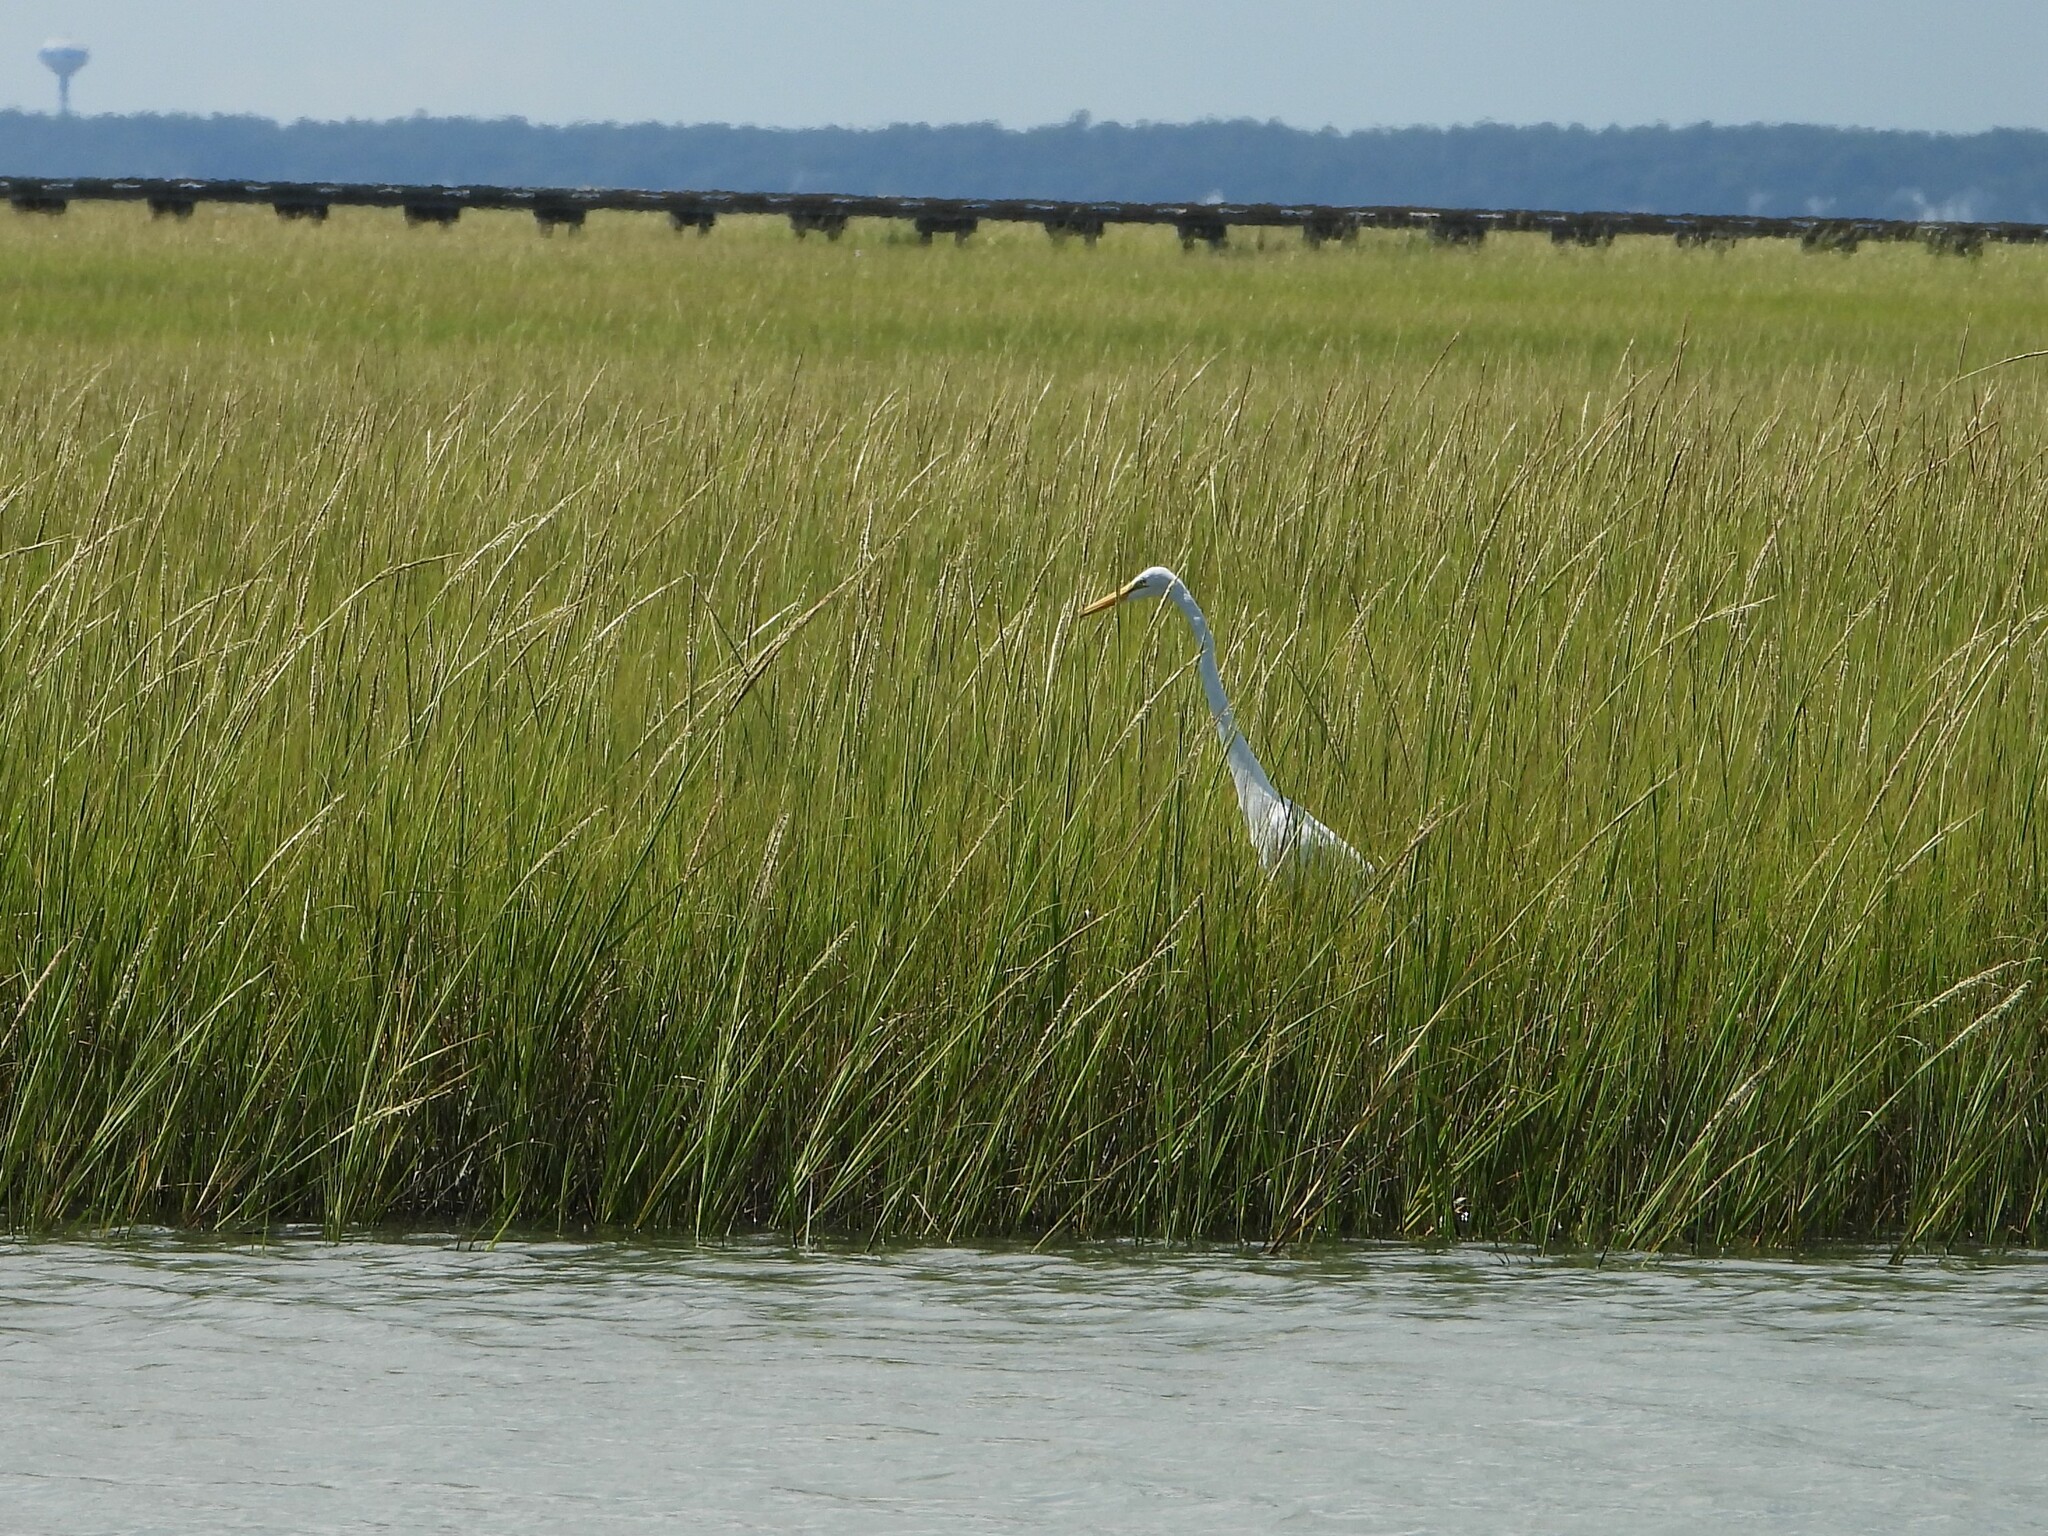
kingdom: Animalia
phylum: Chordata
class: Aves
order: Pelecaniformes
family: Ardeidae
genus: Ardea
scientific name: Ardea alba
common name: Great egret
